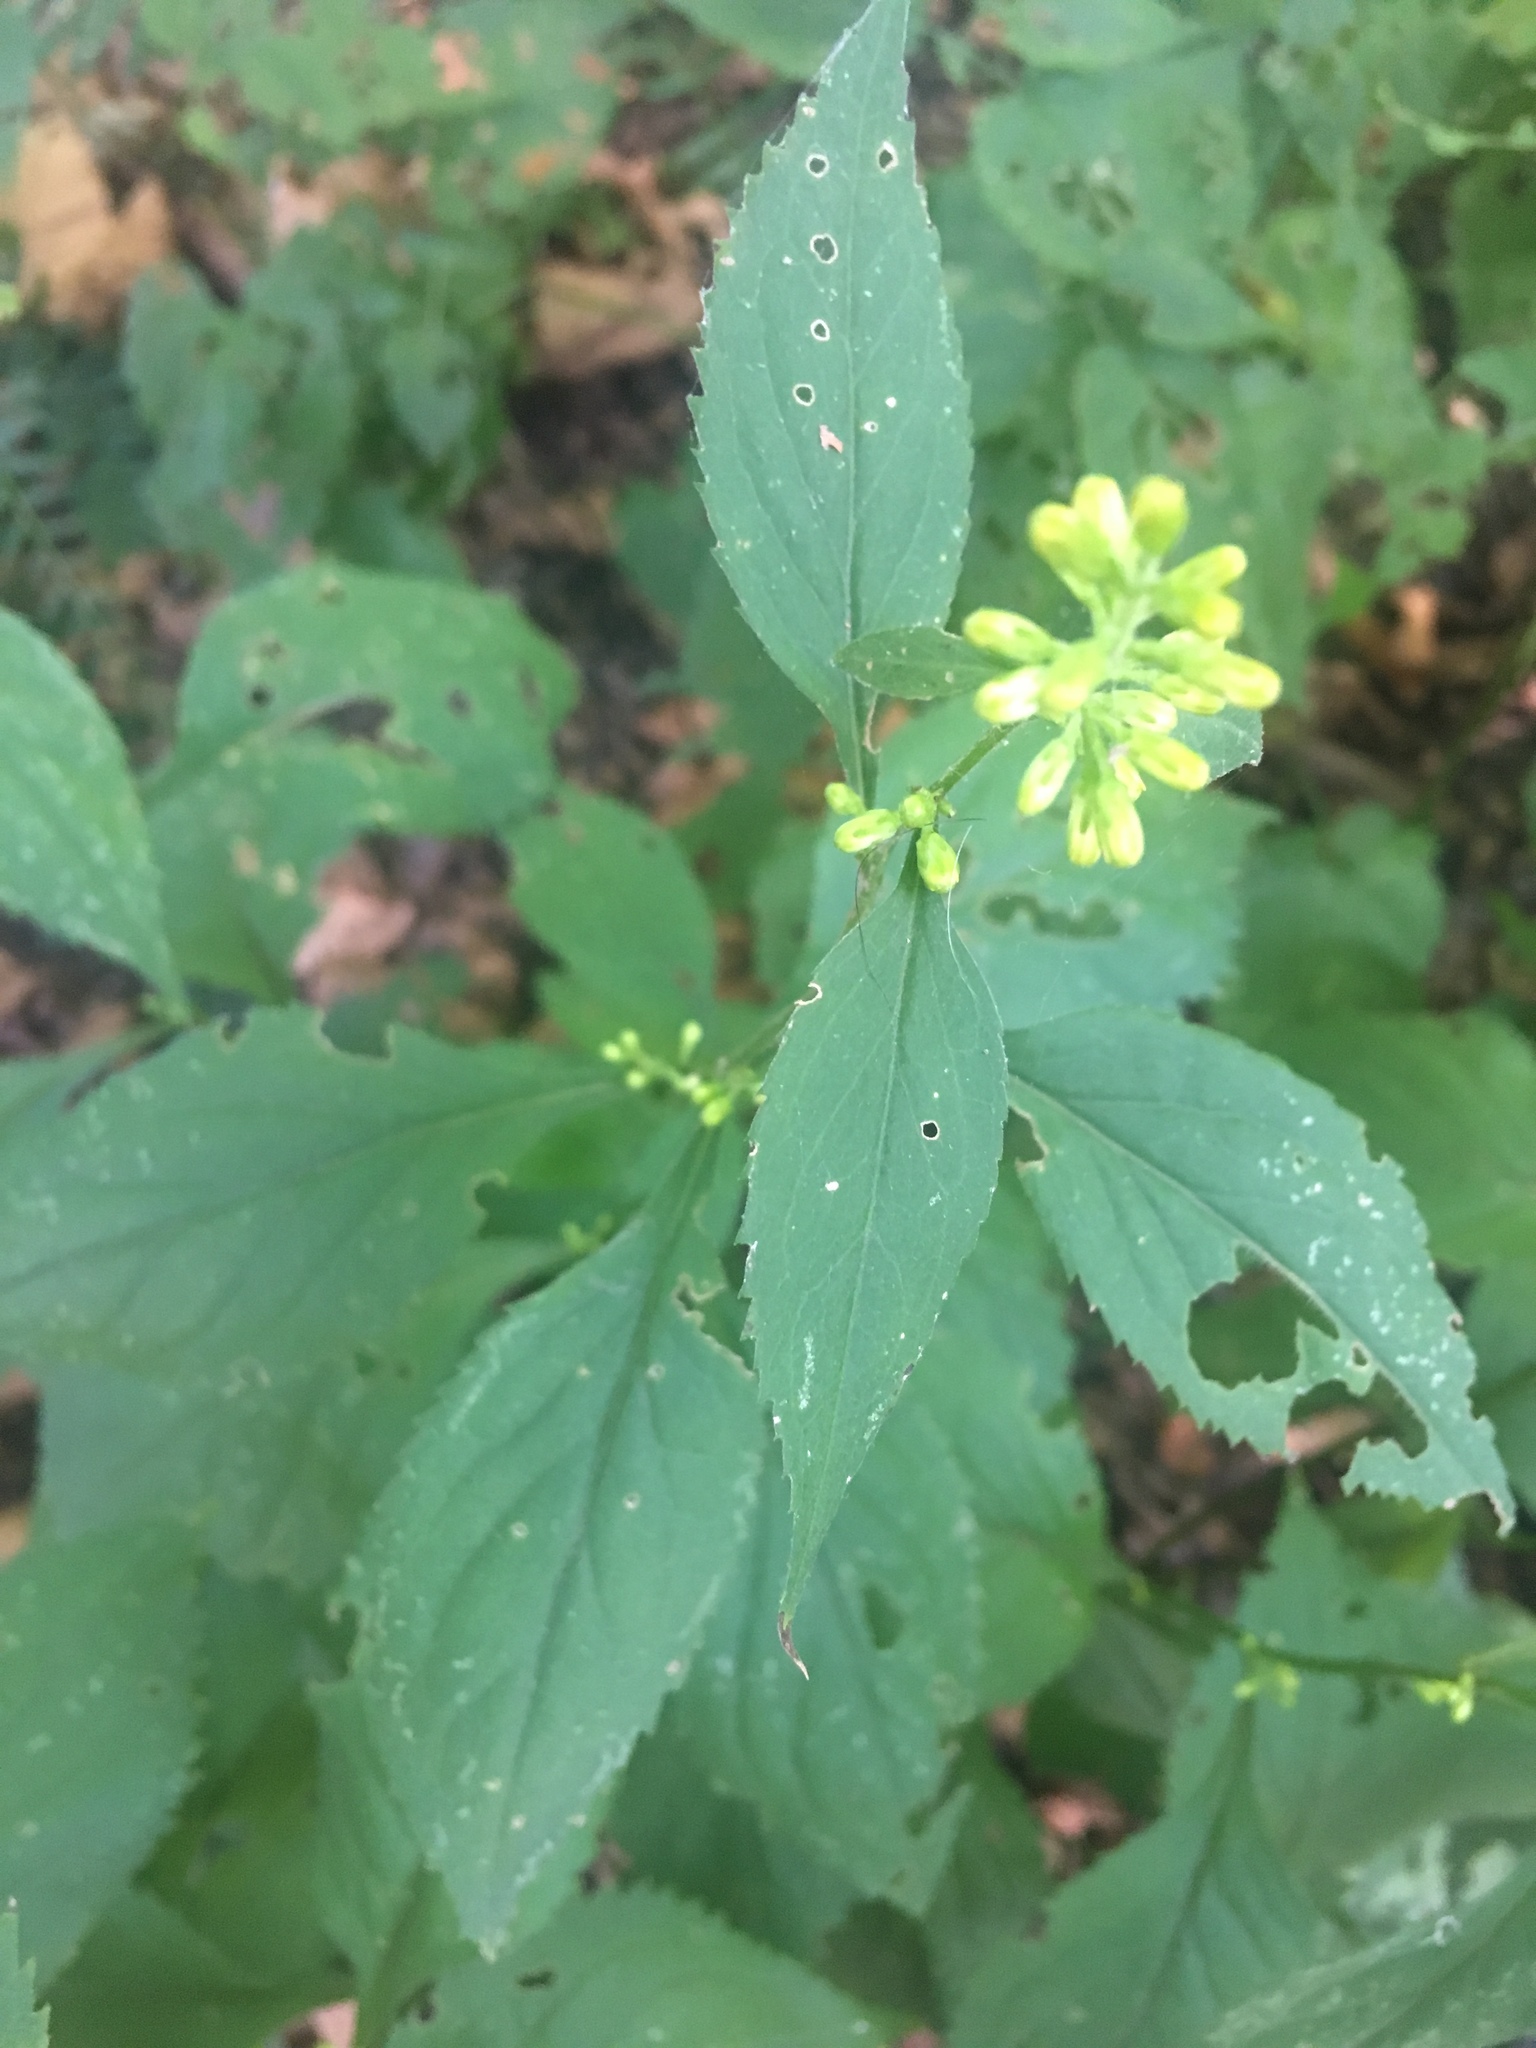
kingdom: Plantae
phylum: Tracheophyta
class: Magnoliopsida
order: Asterales
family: Asteraceae
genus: Solidago
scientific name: Solidago flexicaulis
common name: Zig-zag goldenrod
